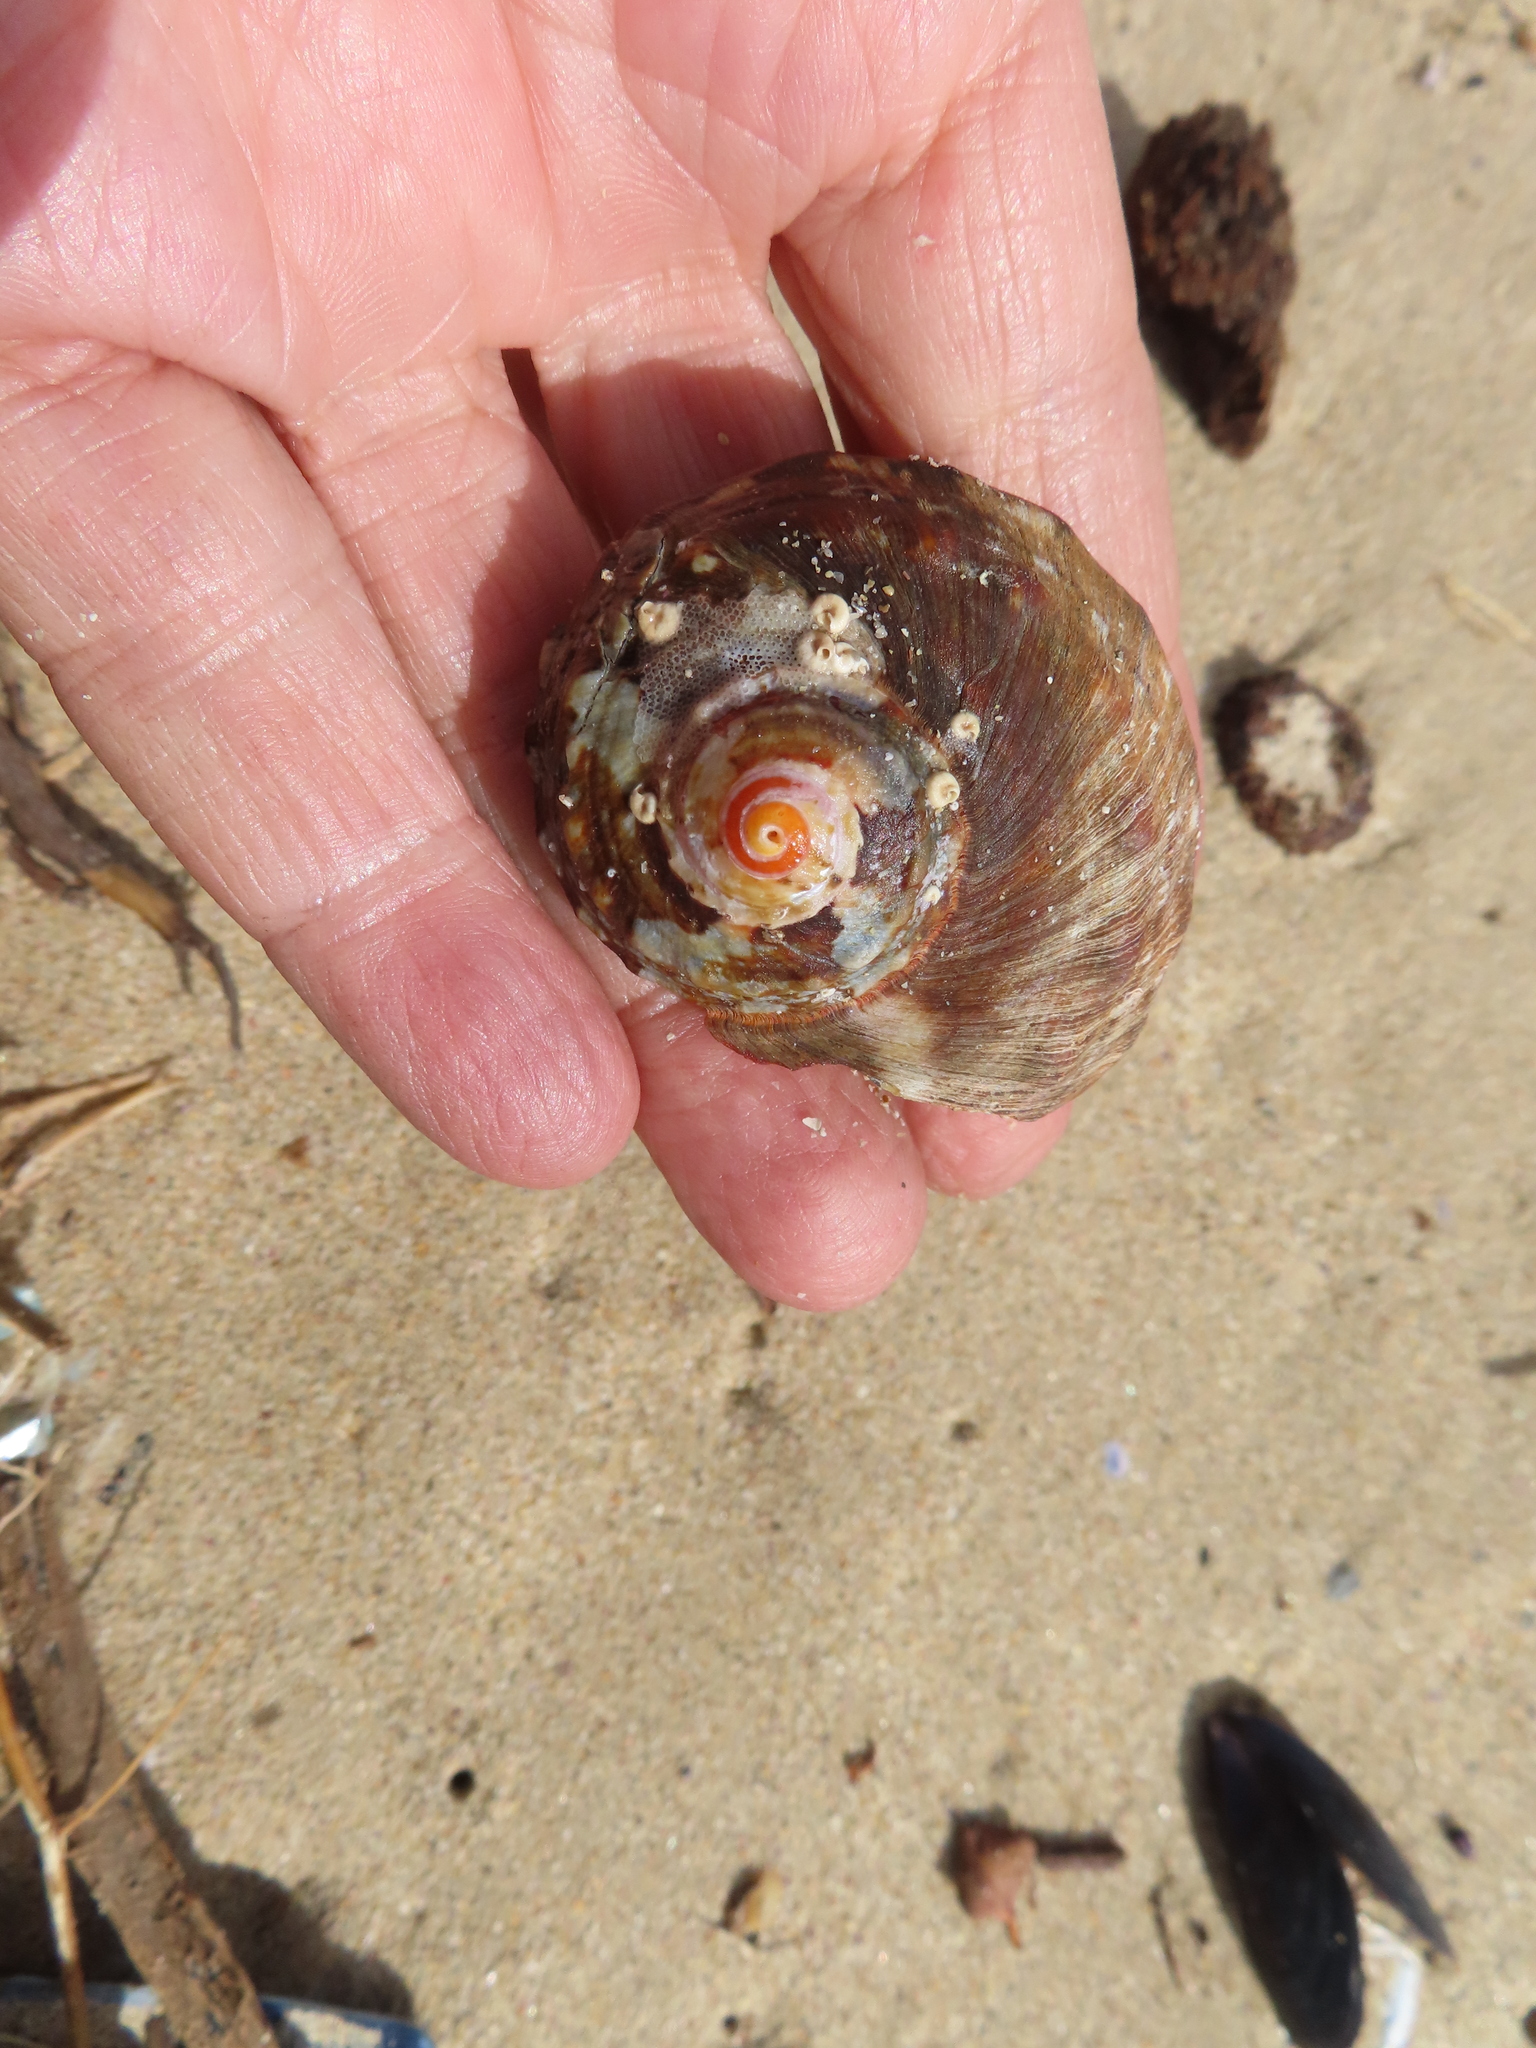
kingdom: Animalia
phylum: Mollusca
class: Gastropoda
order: Trochida
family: Turbinidae
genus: Turbo
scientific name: Turbo sarmaticus
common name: South african turban
